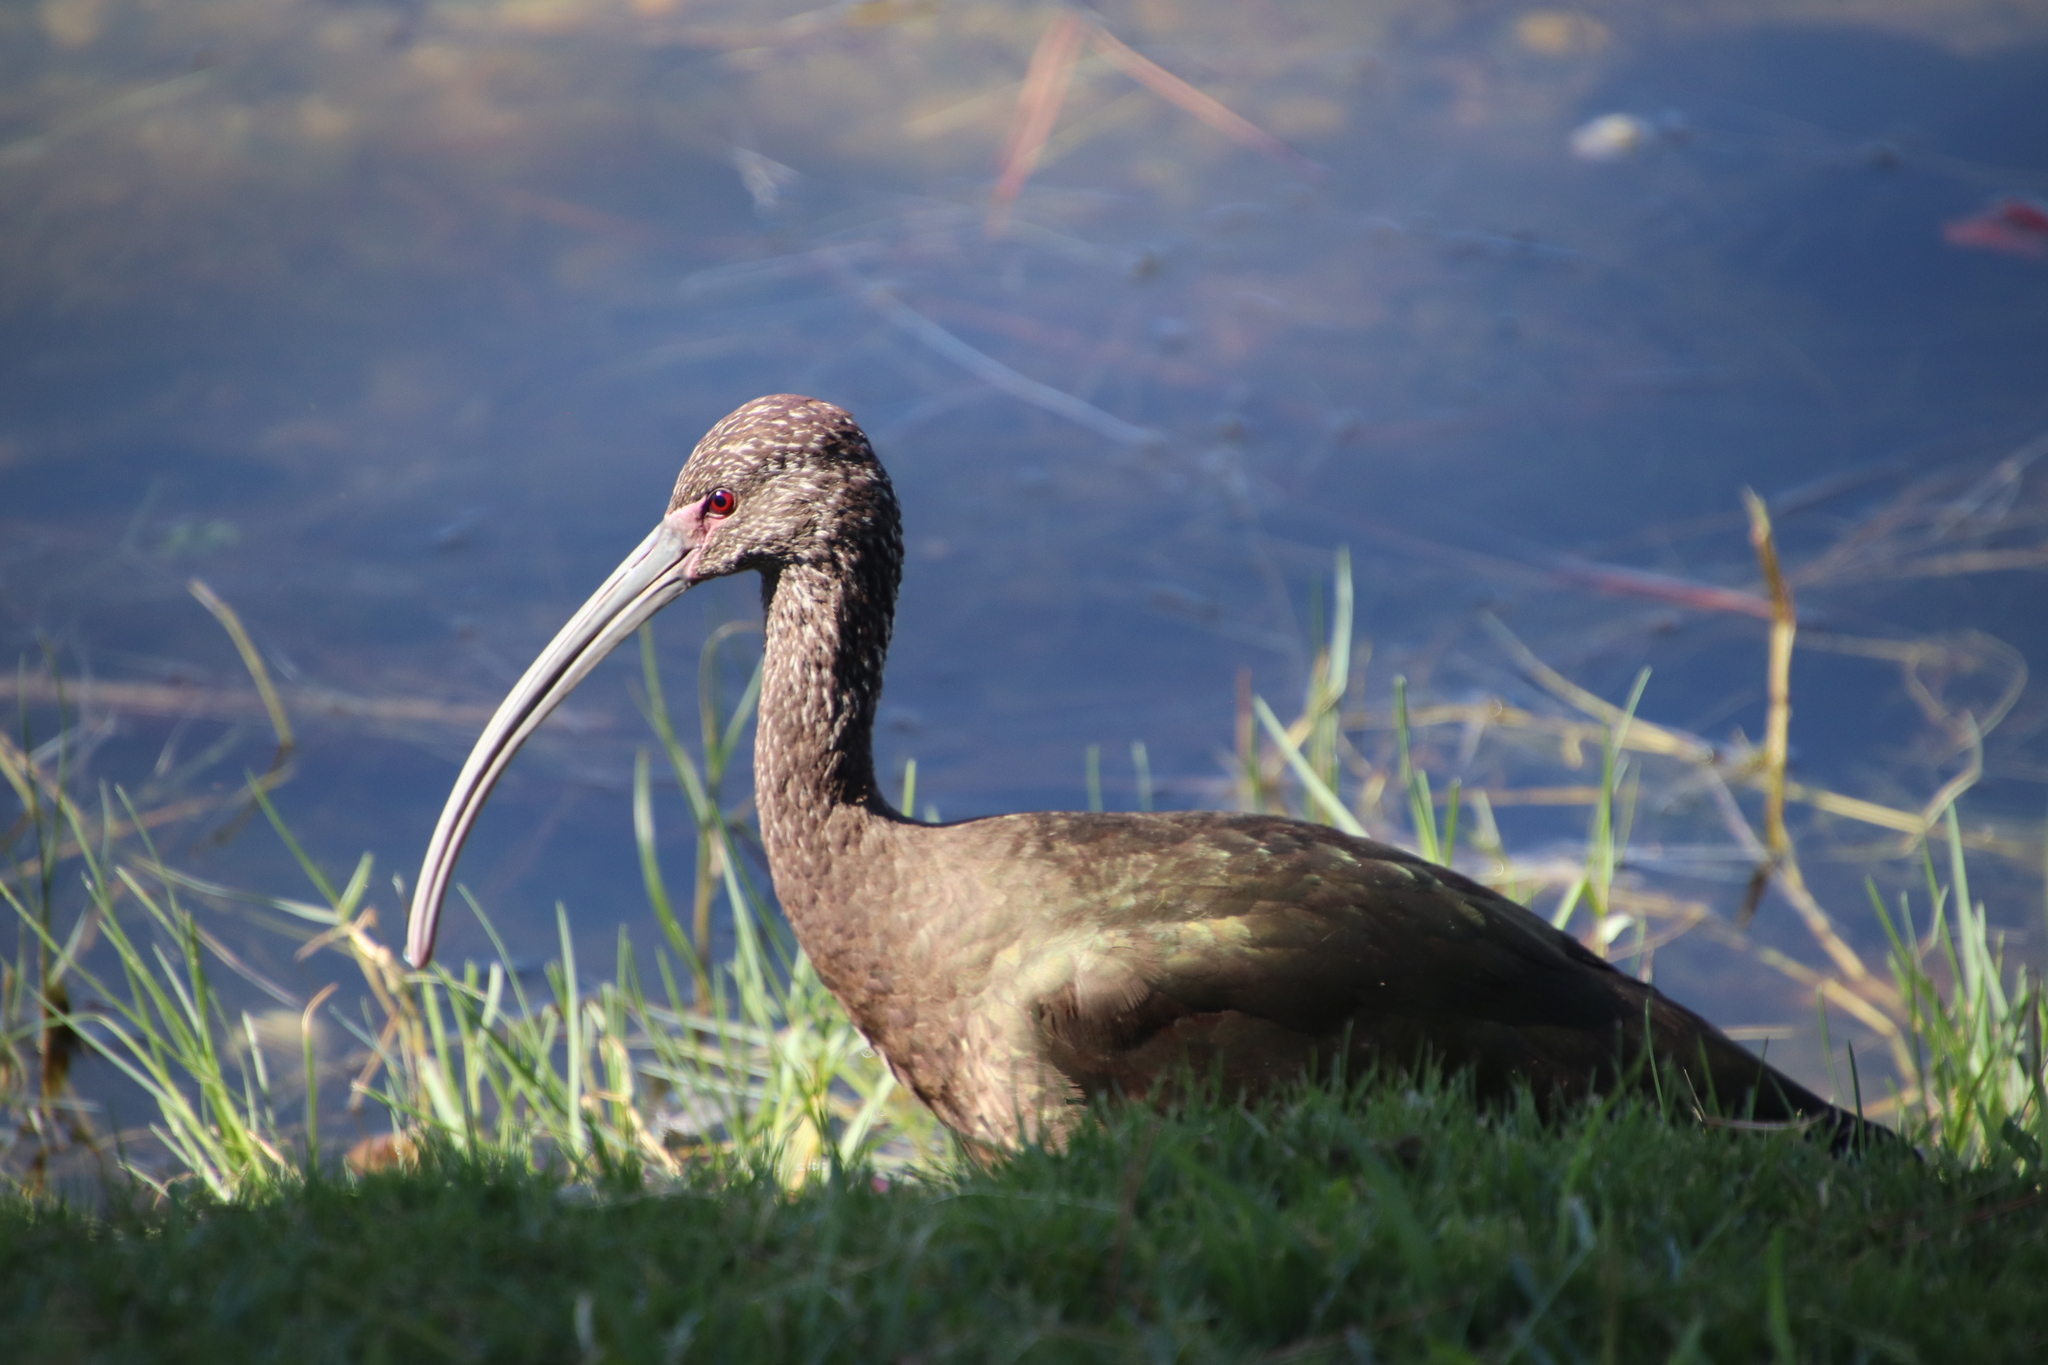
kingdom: Animalia
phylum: Chordata
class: Aves
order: Pelecaniformes
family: Threskiornithidae
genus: Plegadis
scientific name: Plegadis chihi
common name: White-faced ibis
